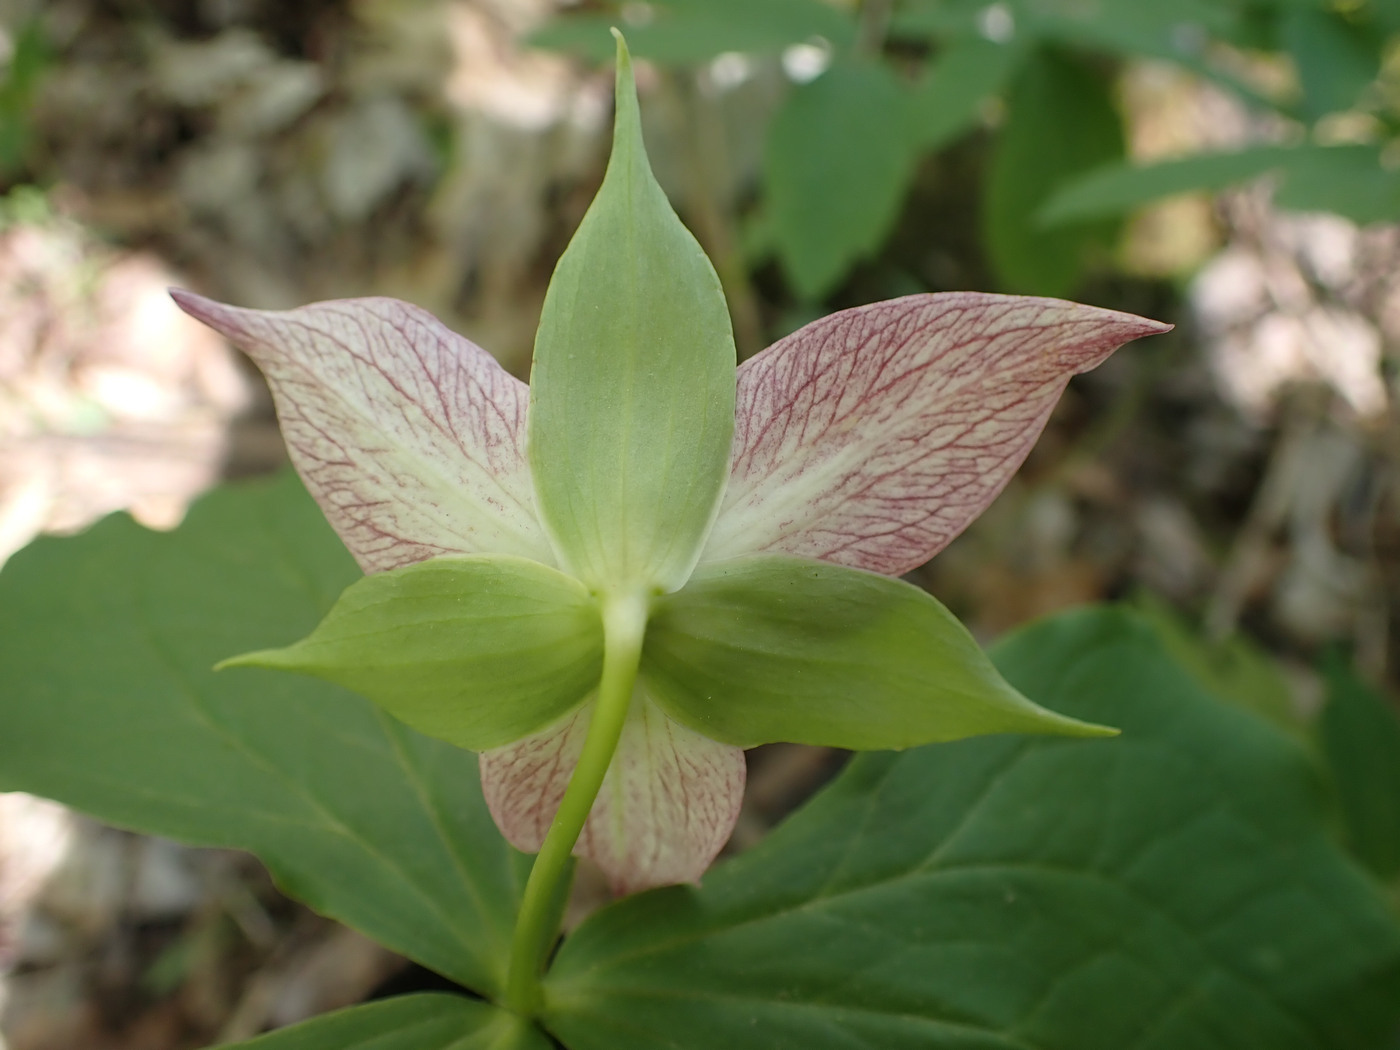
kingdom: Plantae
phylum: Tracheophyta
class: Liliopsida
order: Liliales
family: Melanthiaceae
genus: Trillium
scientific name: Trillium erectum
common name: Purple trillium
